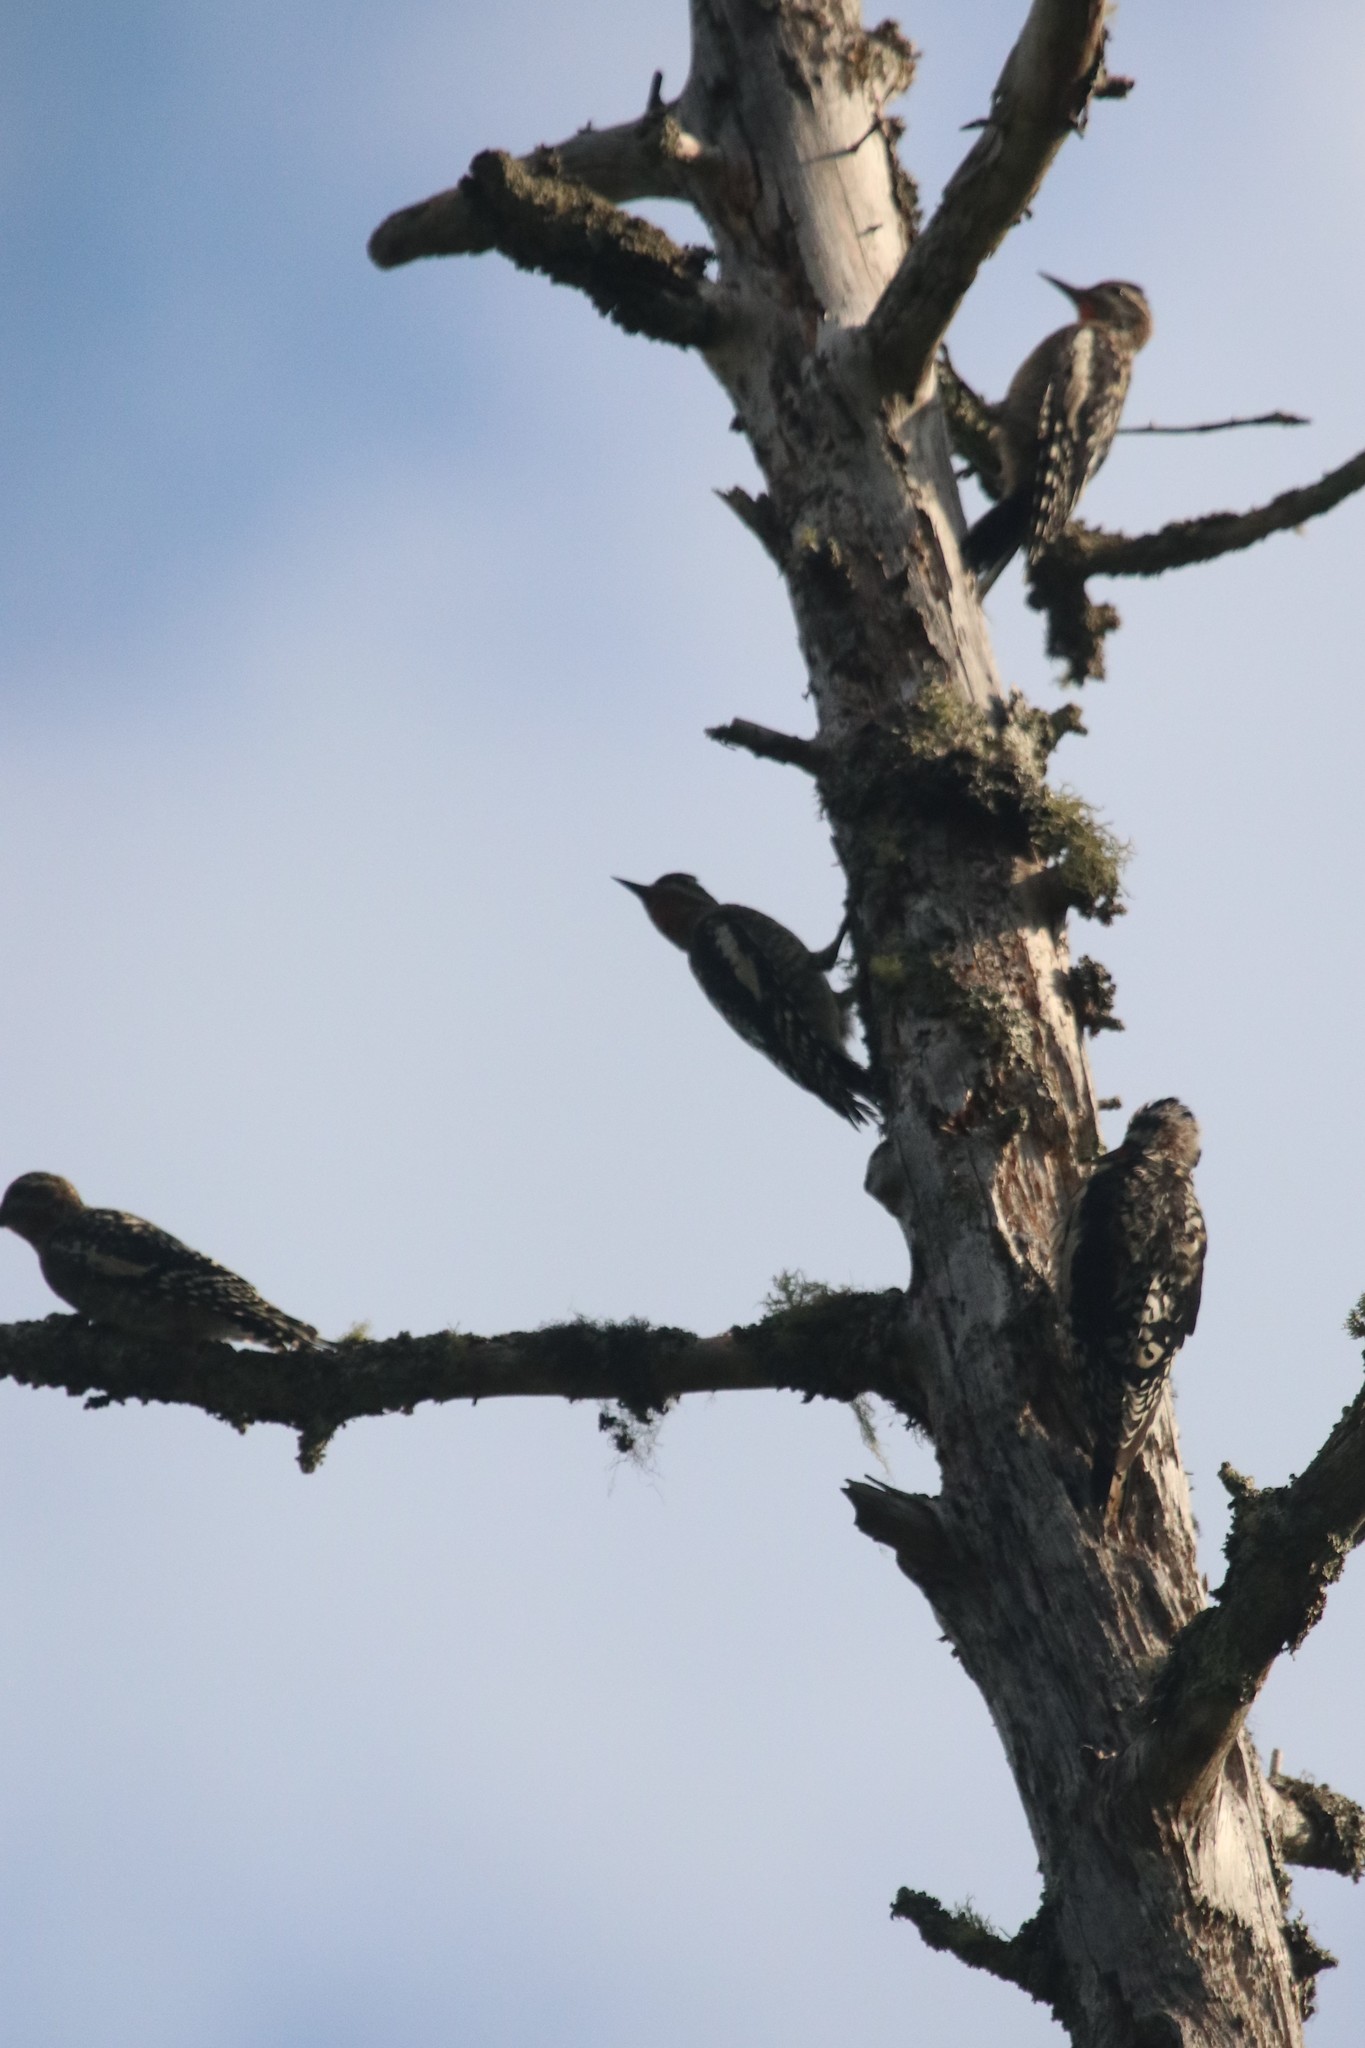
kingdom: Animalia
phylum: Chordata
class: Aves
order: Piciformes
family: Picidae
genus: Sphyrapicus
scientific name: Sphyrapicus varius
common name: Yellow-bellied sapsucker
